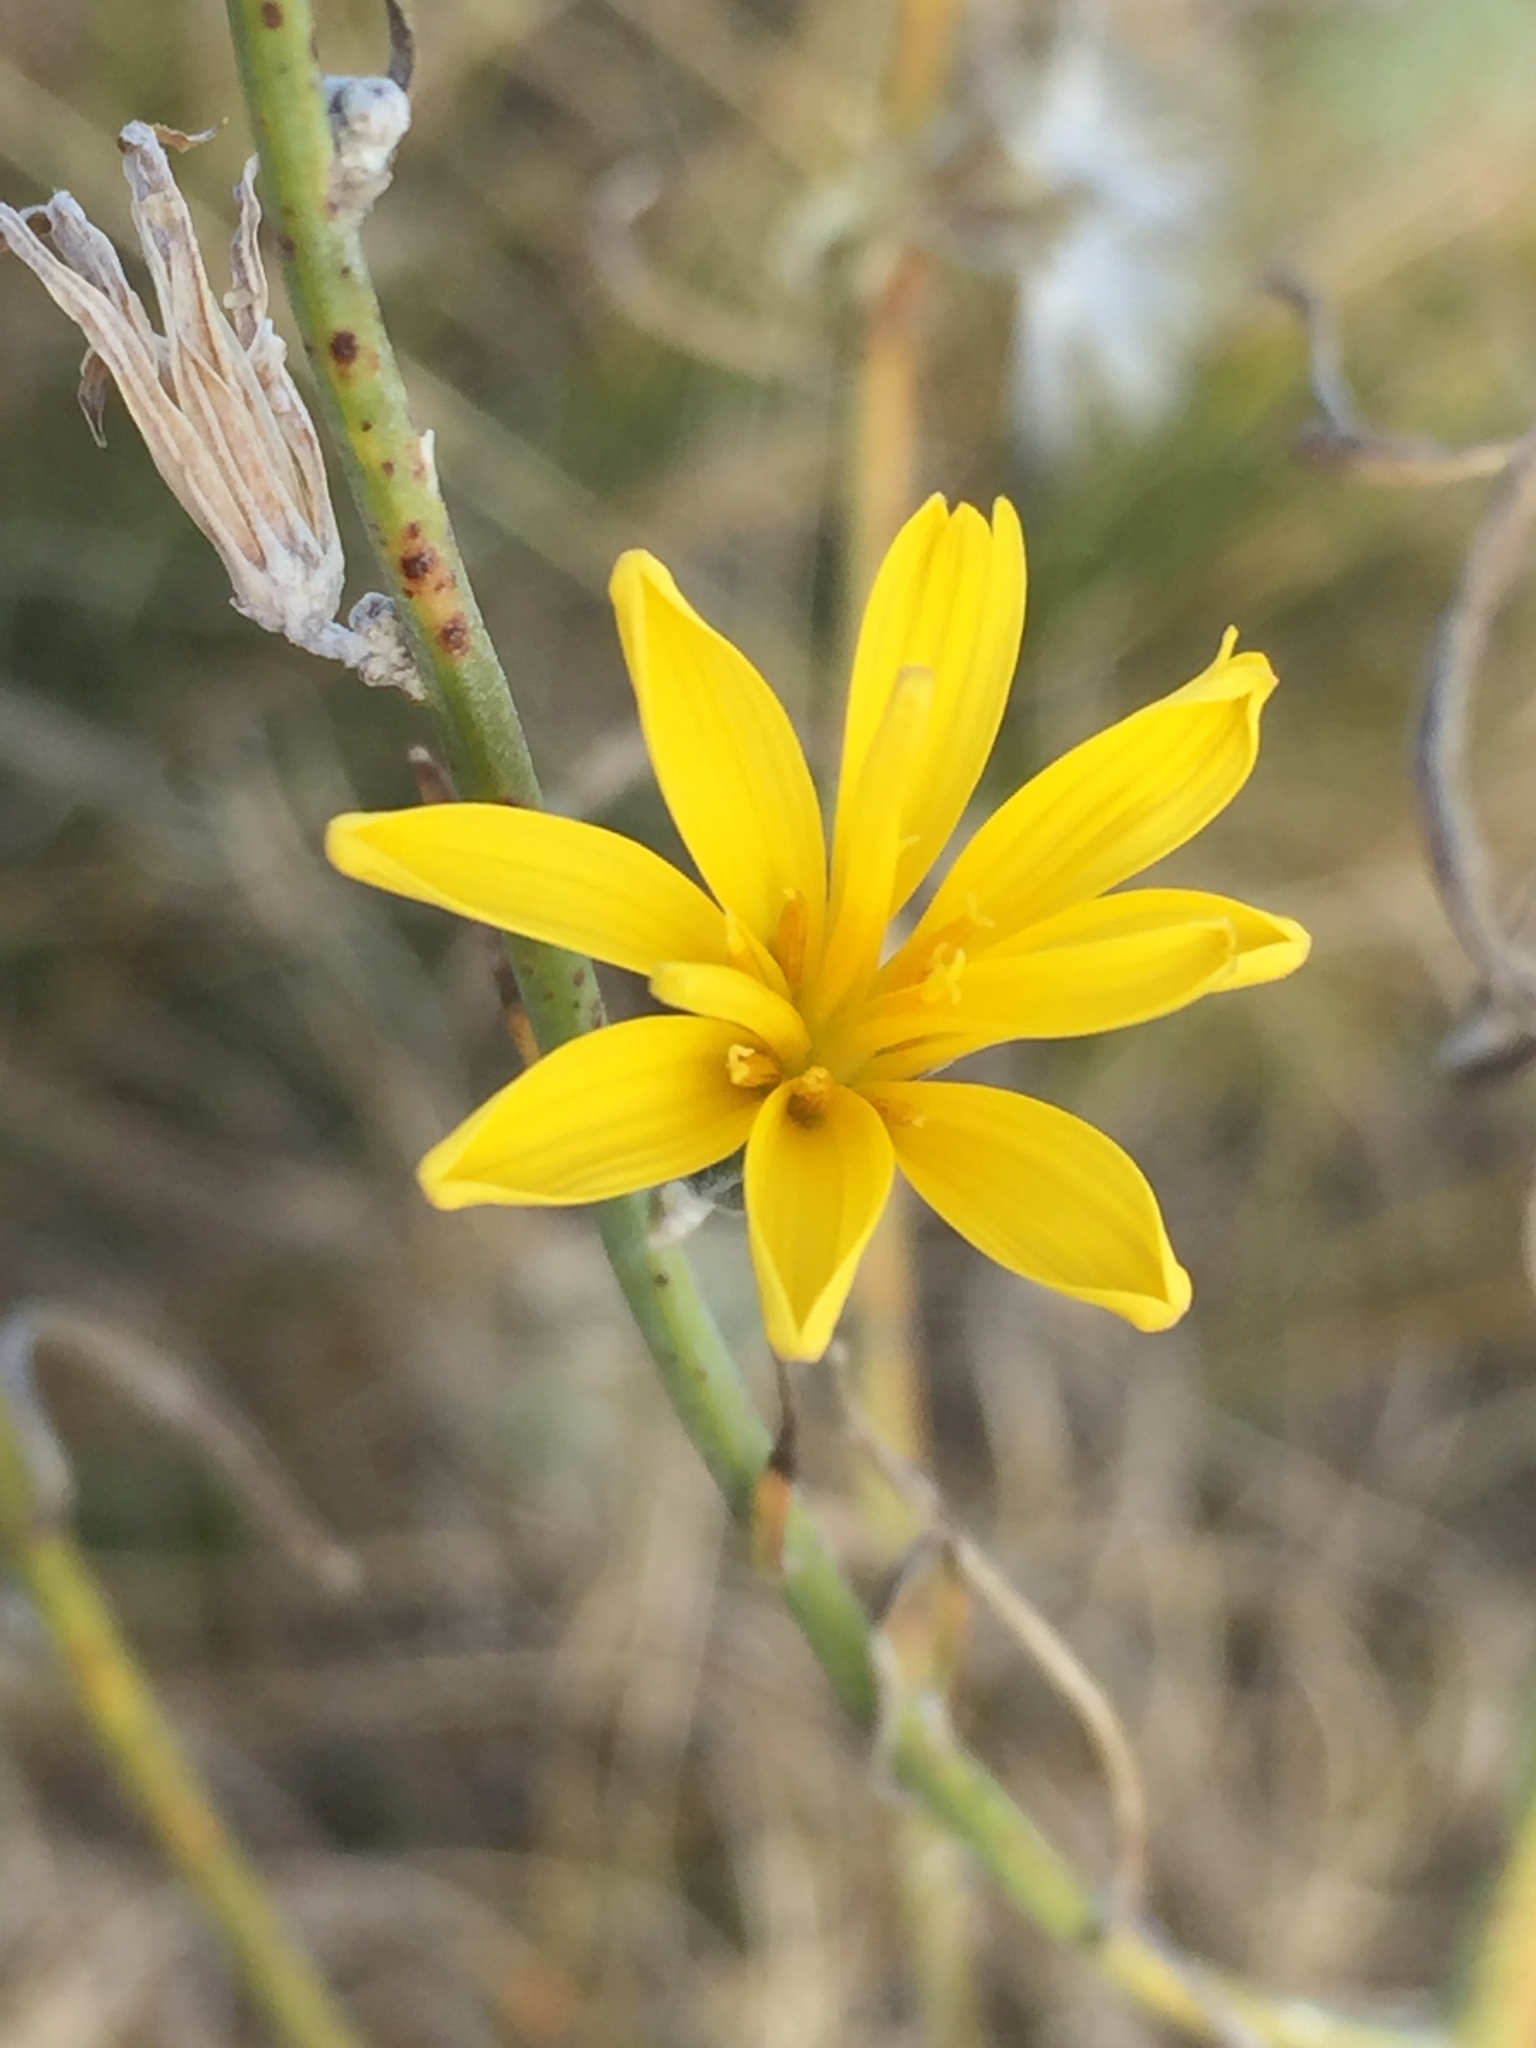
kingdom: Plantae
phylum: Tracheophyta
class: Magnoliopsida
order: Asterales
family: Asteraceae
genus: Chondrilla
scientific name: Chondrilla juncea
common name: Skeleton weed
